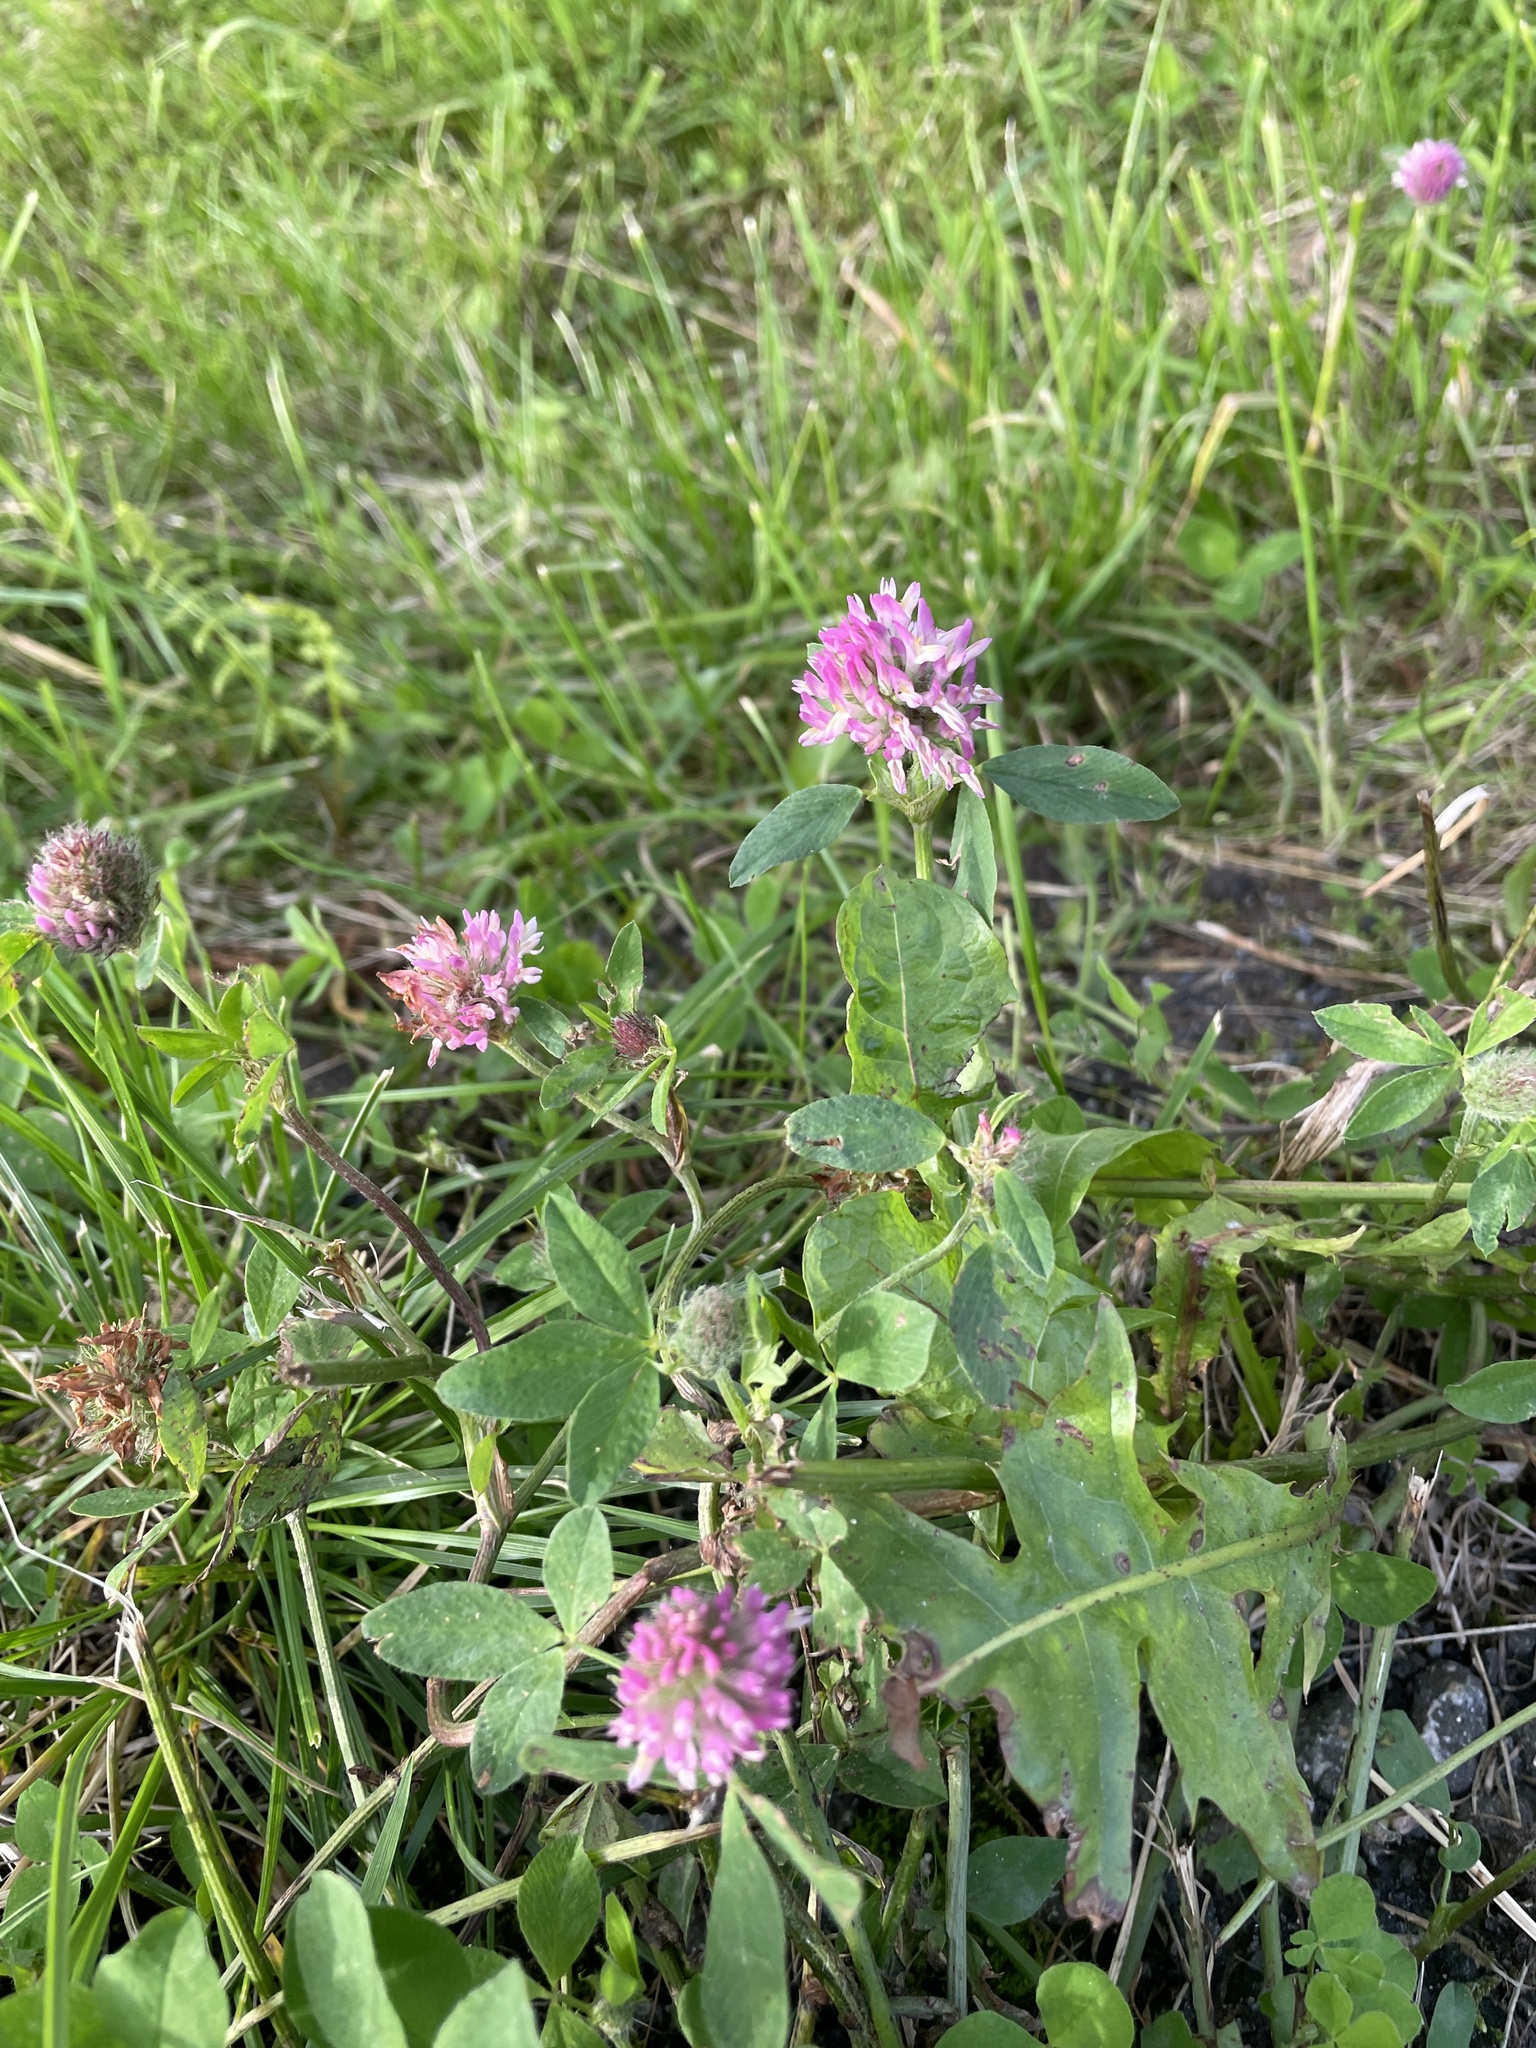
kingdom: Plantae
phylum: Tracheophyta
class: Magnoliopsida
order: Fabales
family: Fabaceae
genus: Trifolium
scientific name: Trifolium pratense
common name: Red clover
